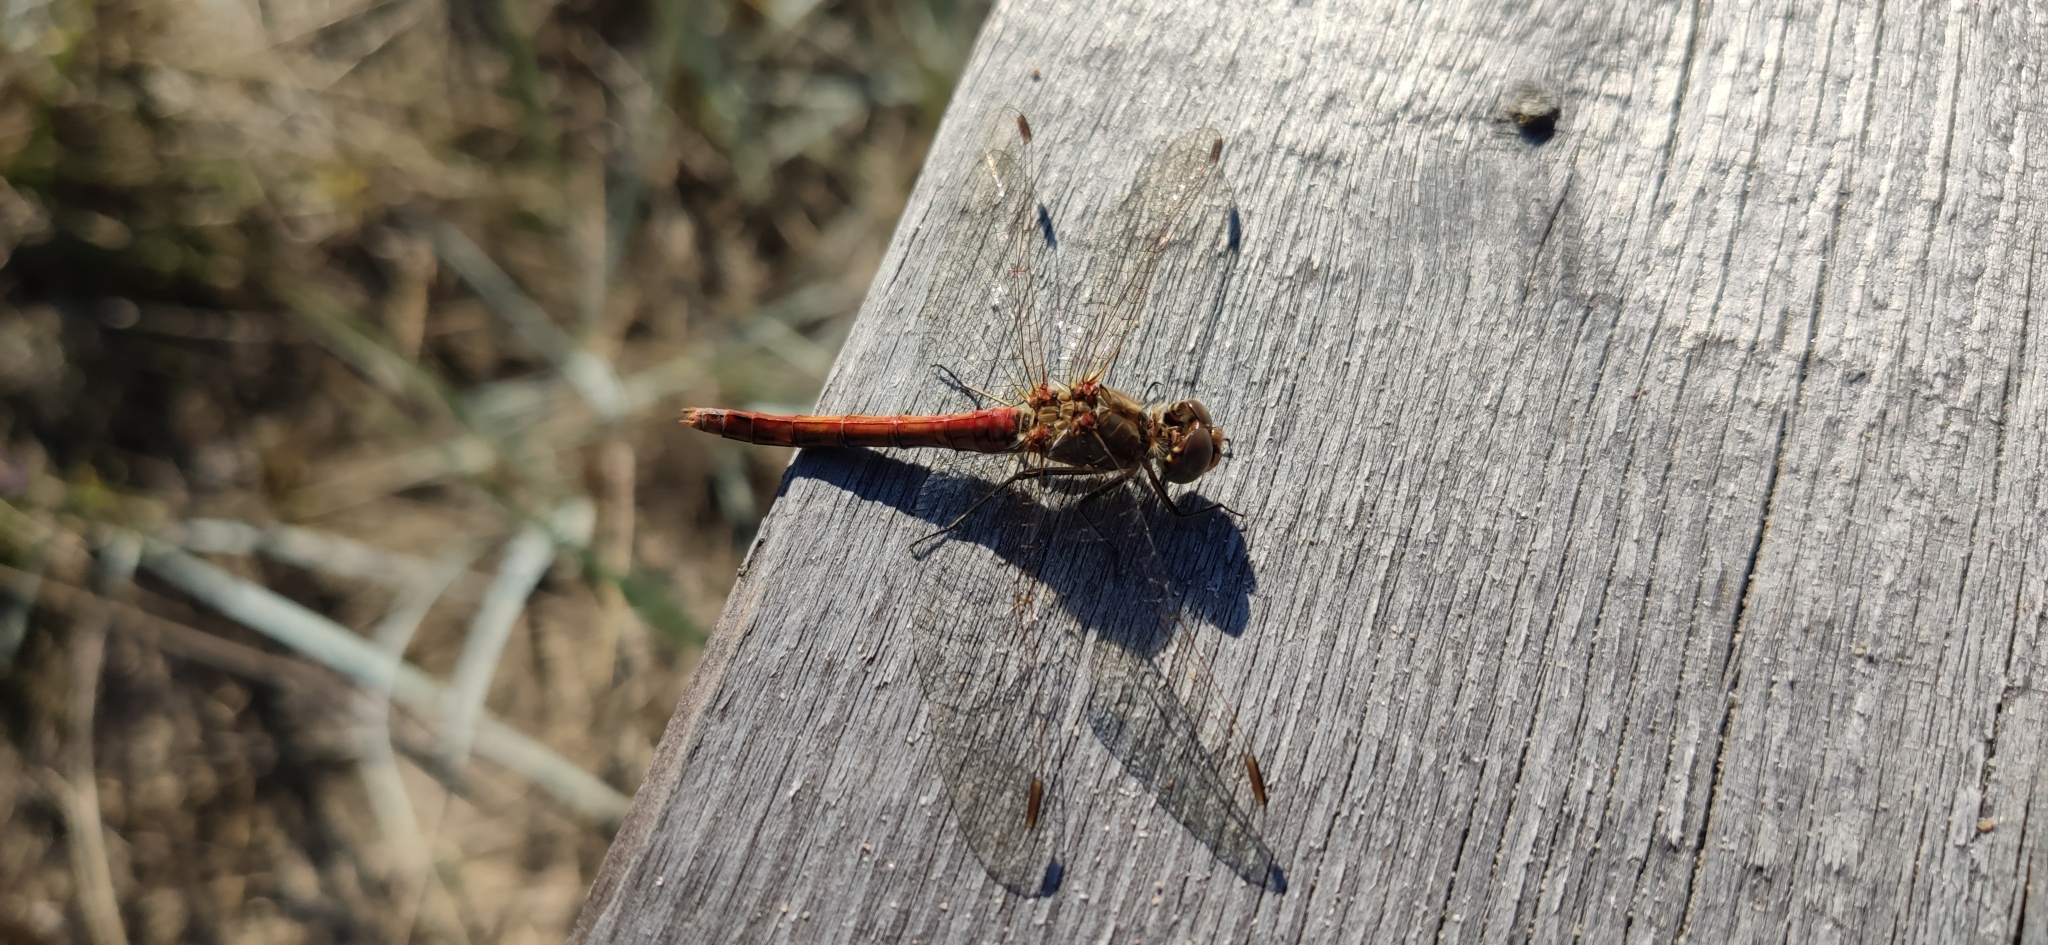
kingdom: Animalia
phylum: Arthropoda
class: Insecta
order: Odonata
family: Libellulidae
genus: Sympetrum
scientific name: Sympetrum vulgatum
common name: Vagrant darter
